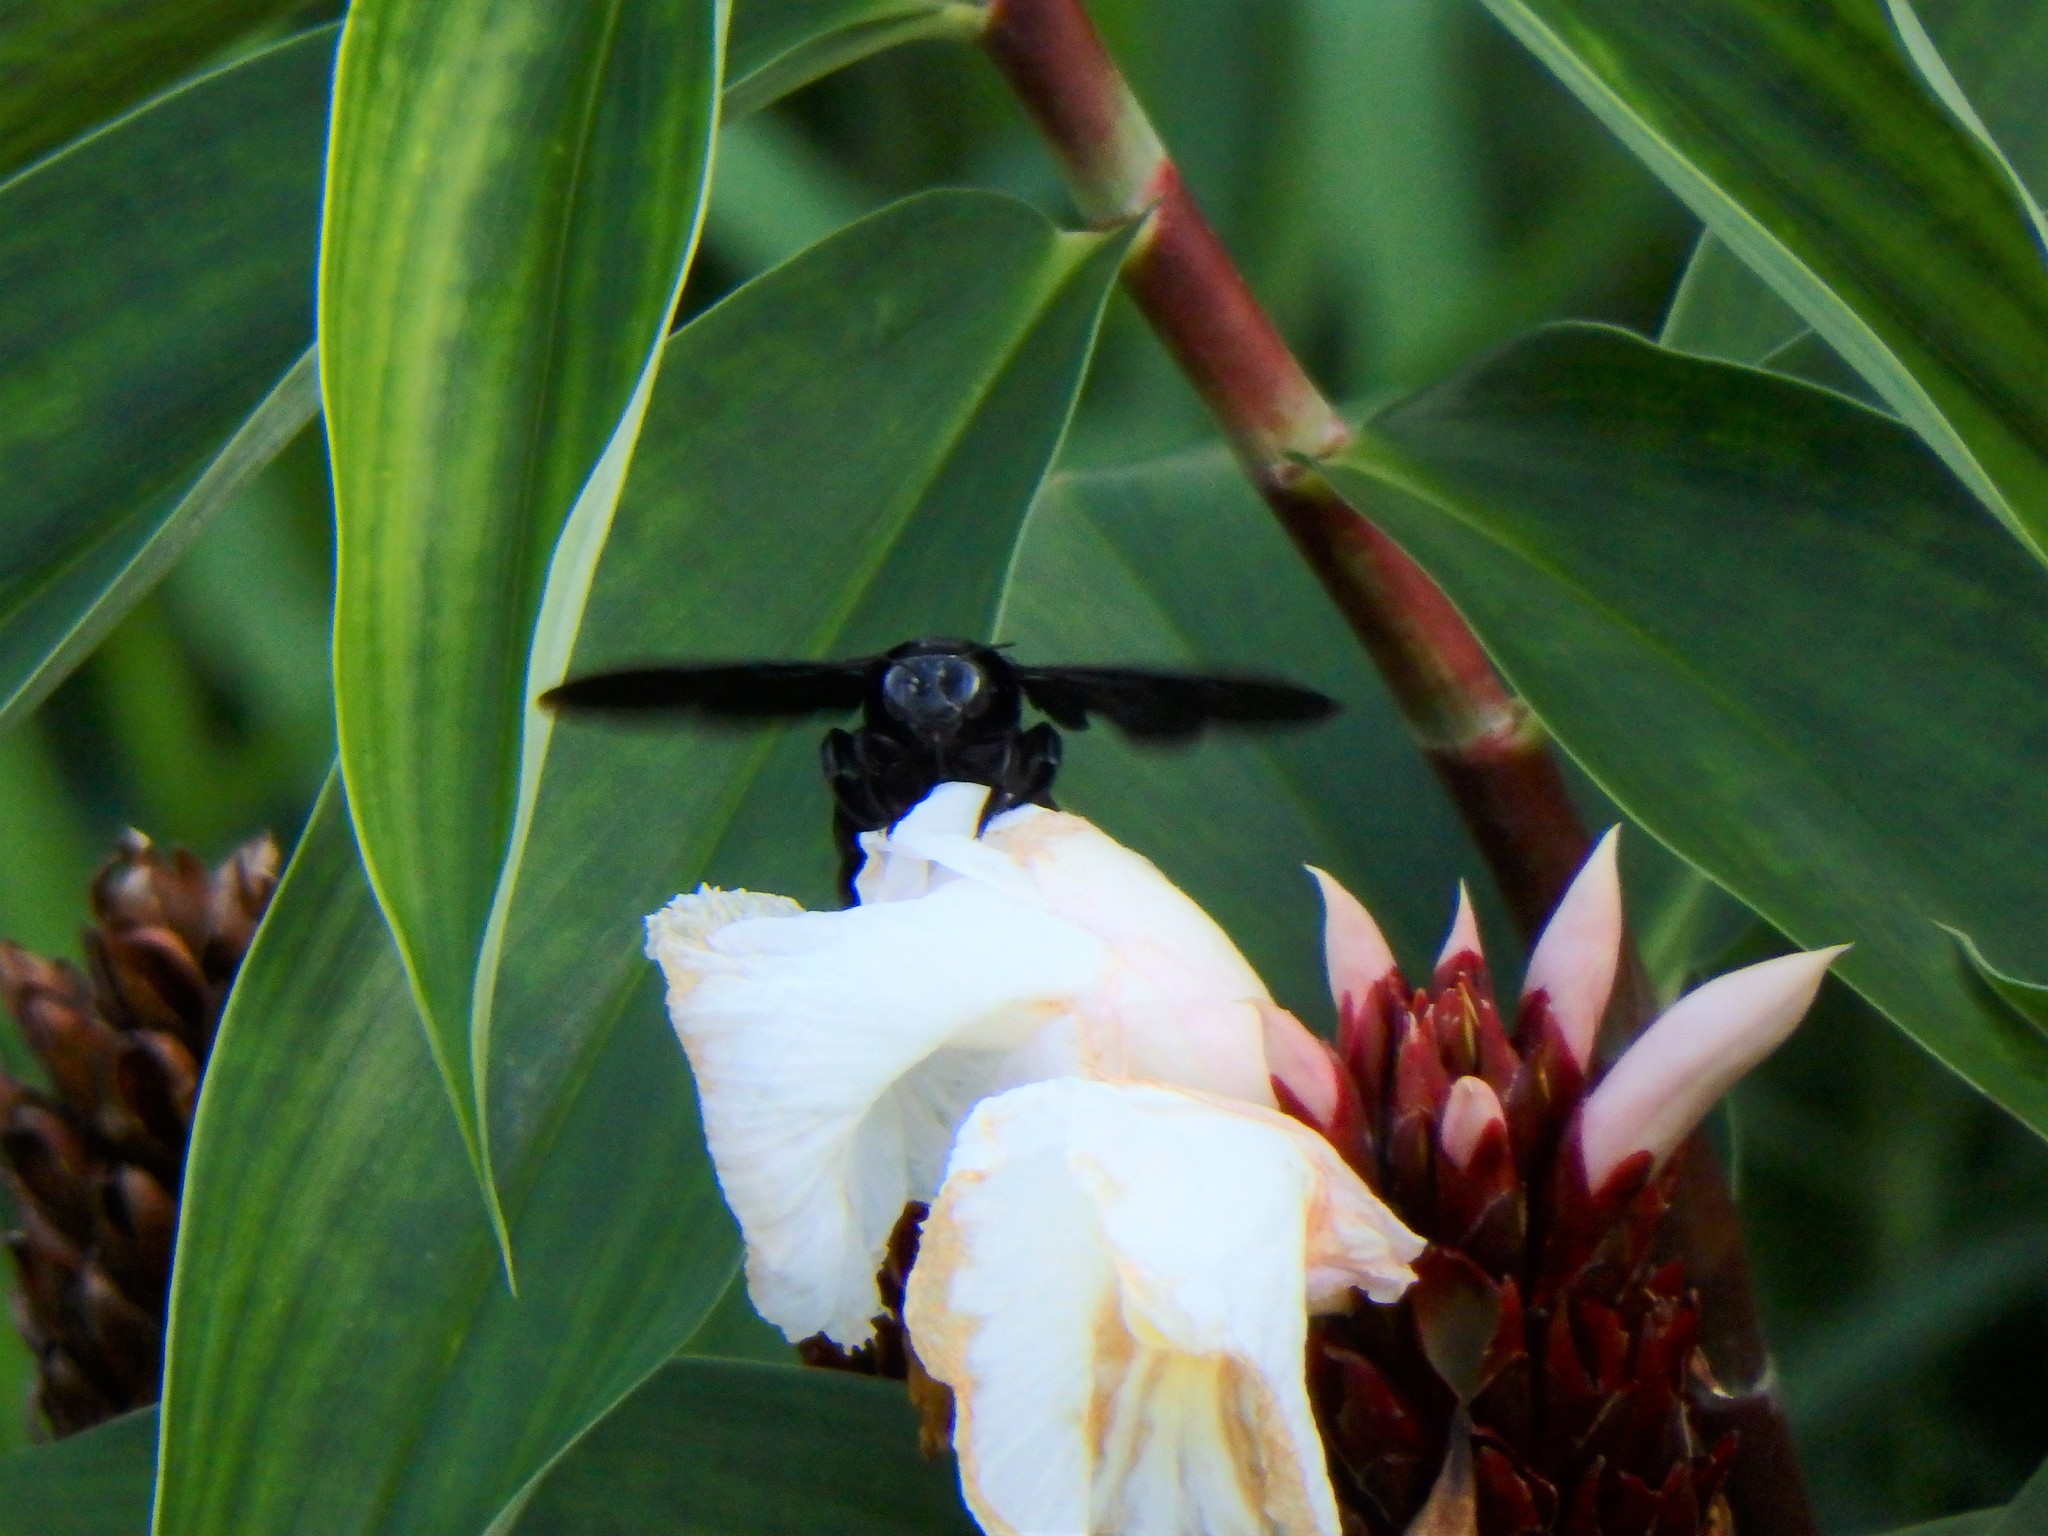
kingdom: Animalia
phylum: Arthropoda
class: Insecta
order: Hymenoptera
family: Apidae
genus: Xylocopa
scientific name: Xylocopa latipes
